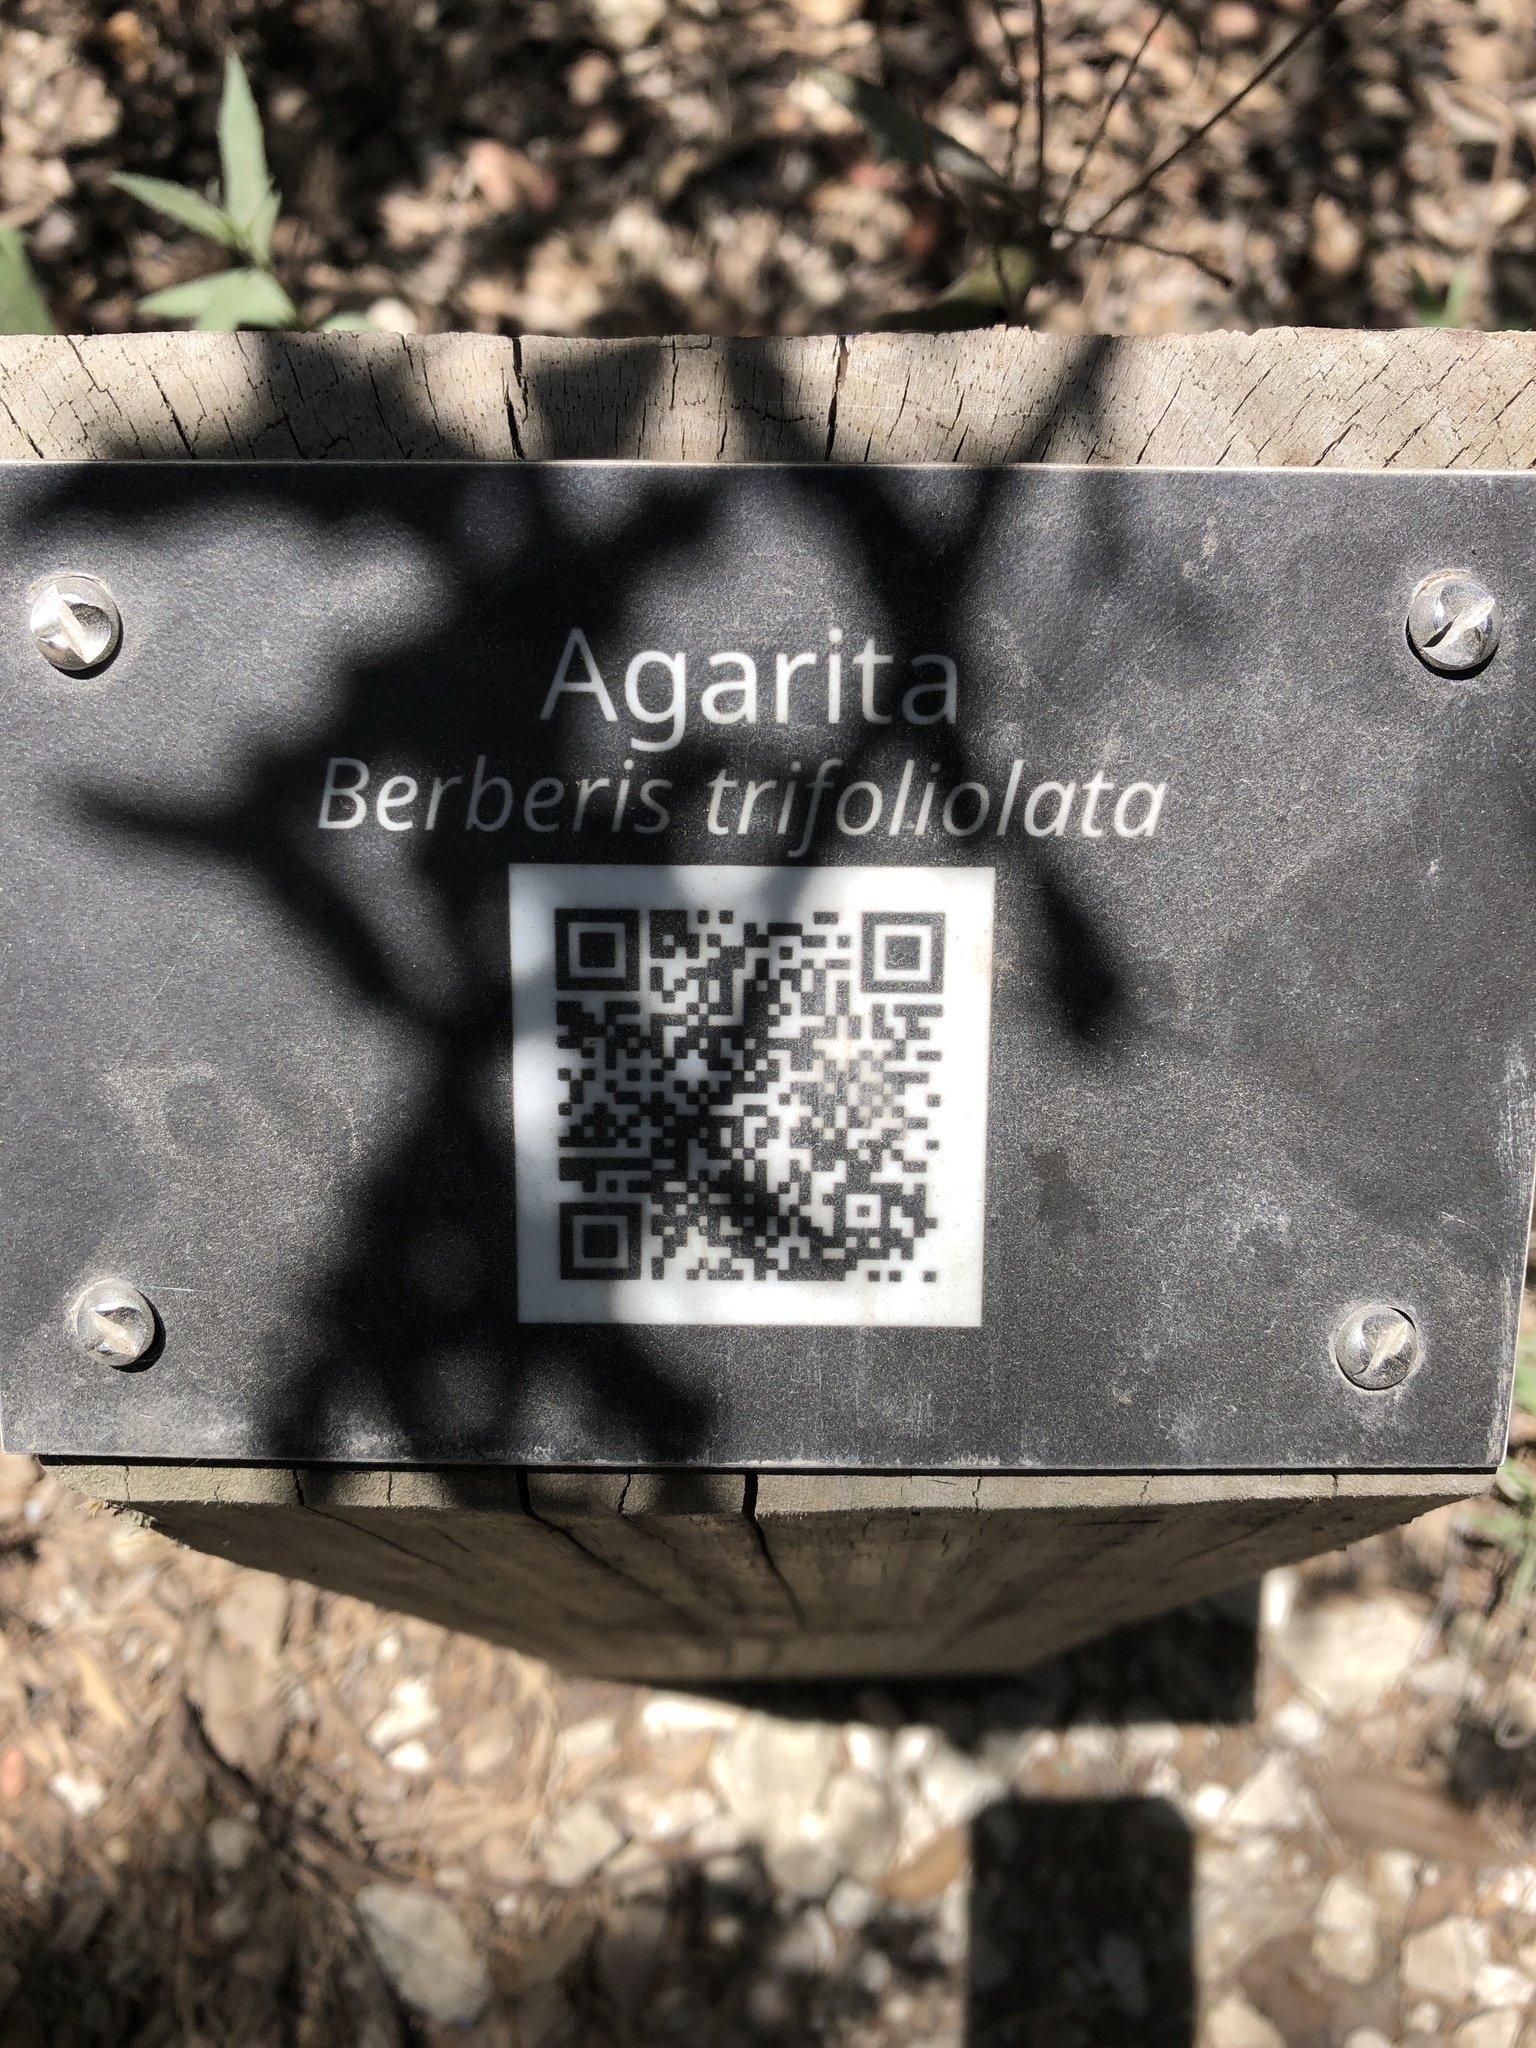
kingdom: Plantae
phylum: Tracheophyta
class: Magnoliopsida
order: Ranunculales
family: Berberidaceae
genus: Alloberberis
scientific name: Alloberberis trifoliolata
